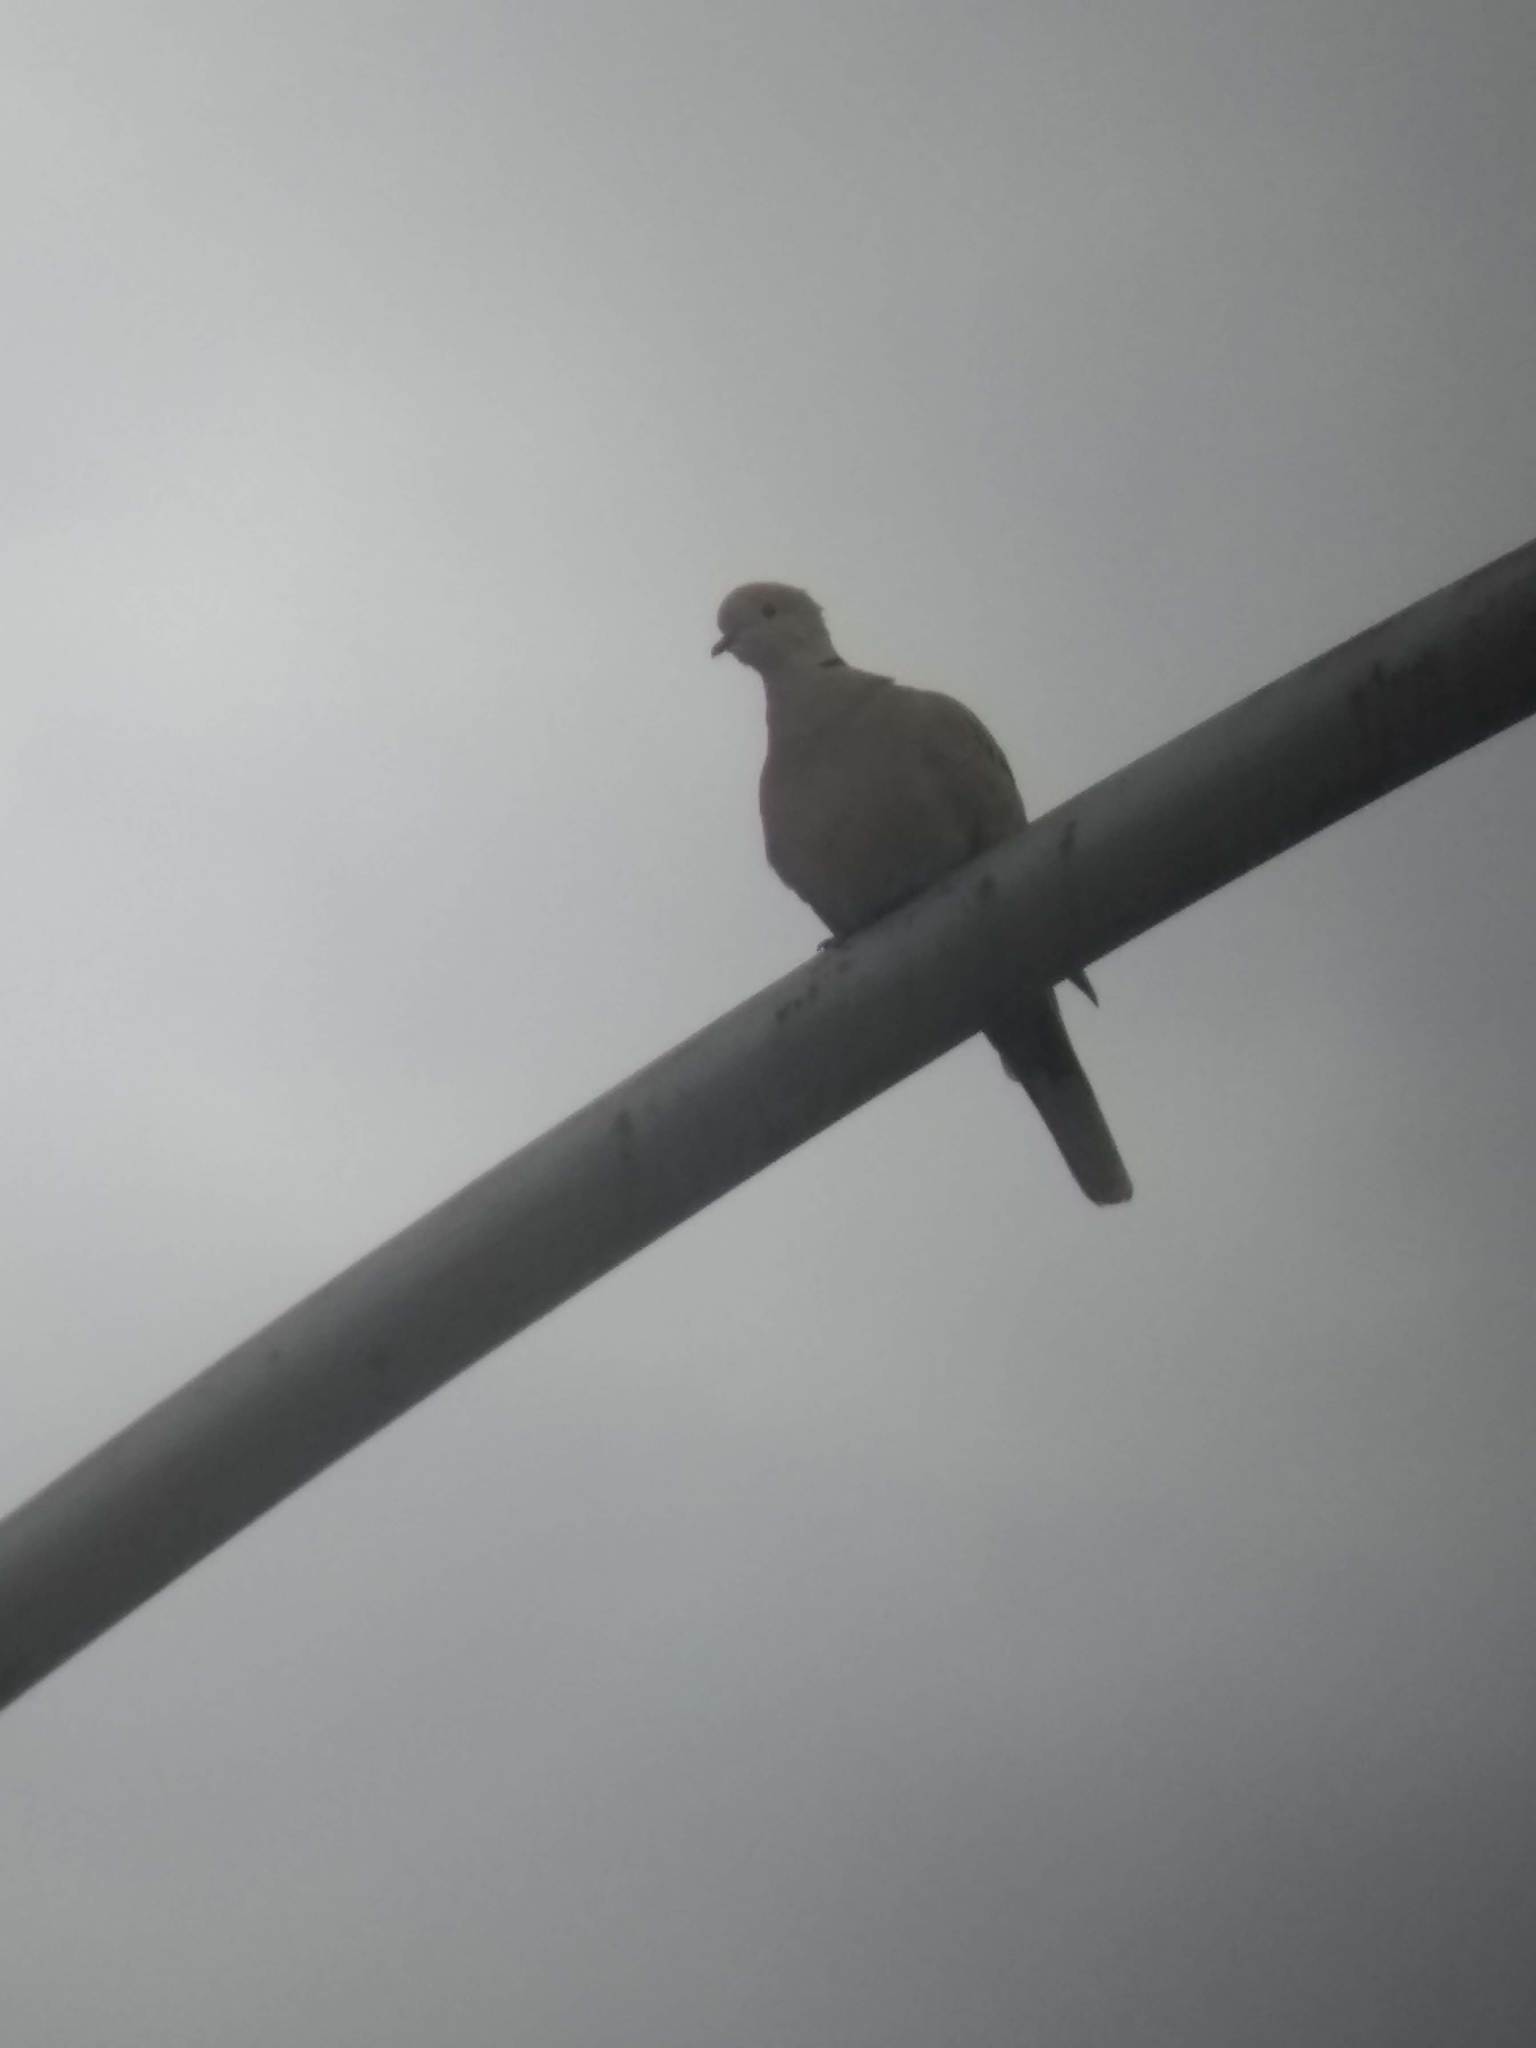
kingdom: Animalia
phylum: Chordata
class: Aves
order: Columbiformes
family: Columbidae
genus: Streptopelia
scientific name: Streptopelia decaocto
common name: Eurasian collared dove
